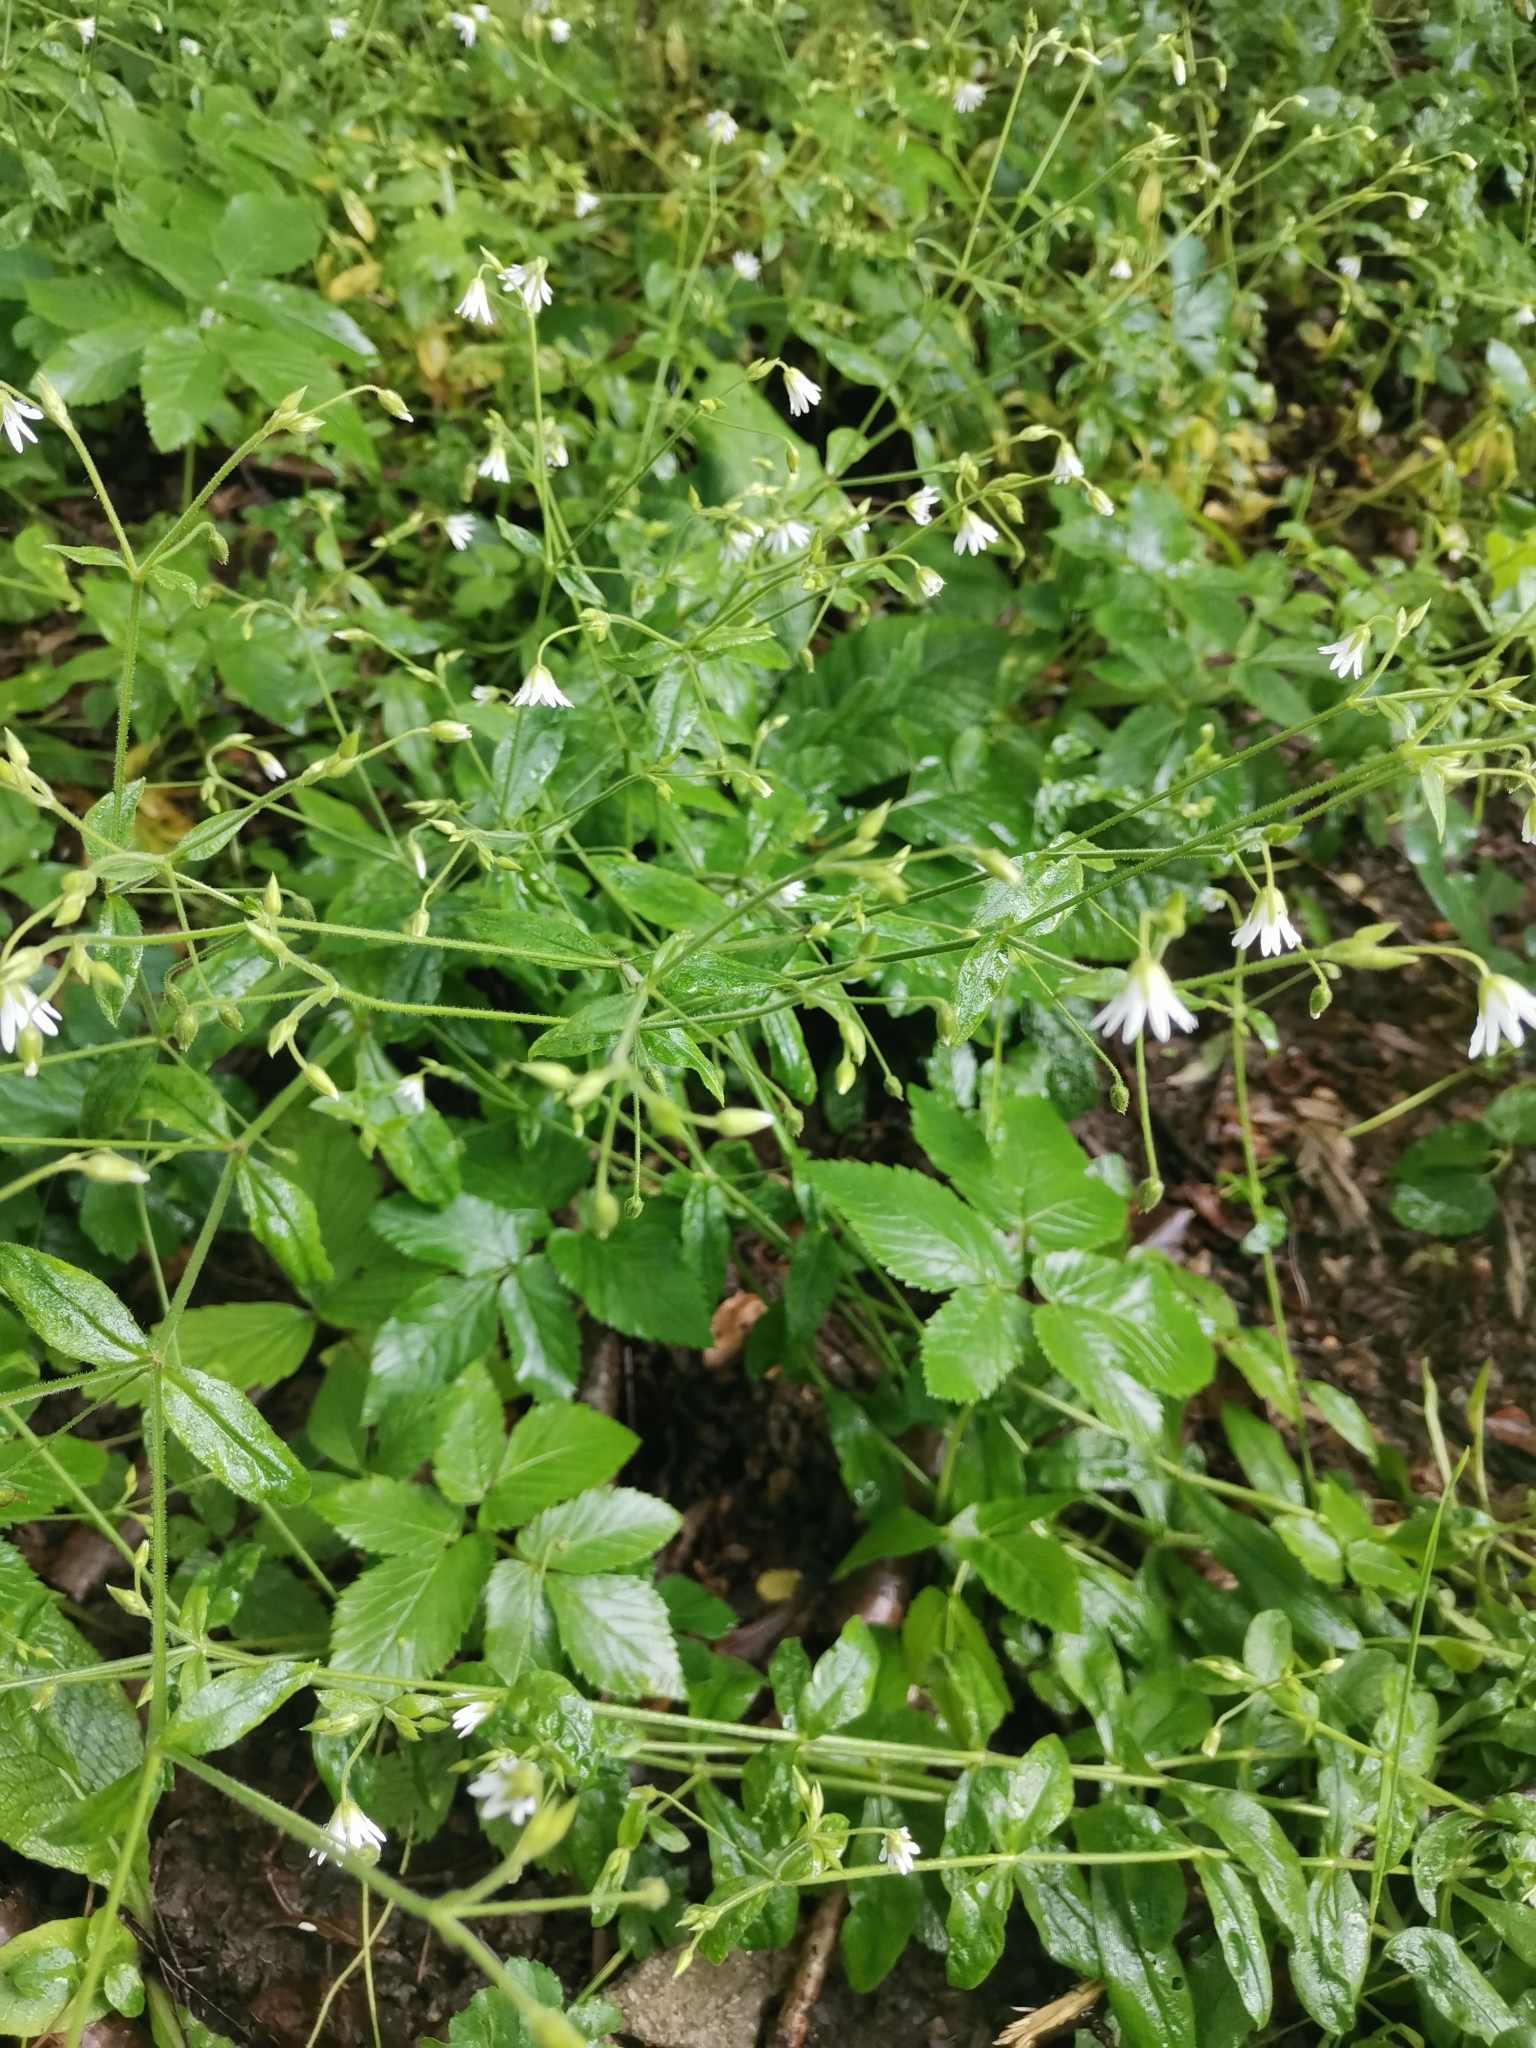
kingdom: Plantae
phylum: Tracheophyta
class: Magnoliopsida
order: Caryophyllales
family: Caryophyllaceae
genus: Cerastium
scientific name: Cerastium sylvaticum
